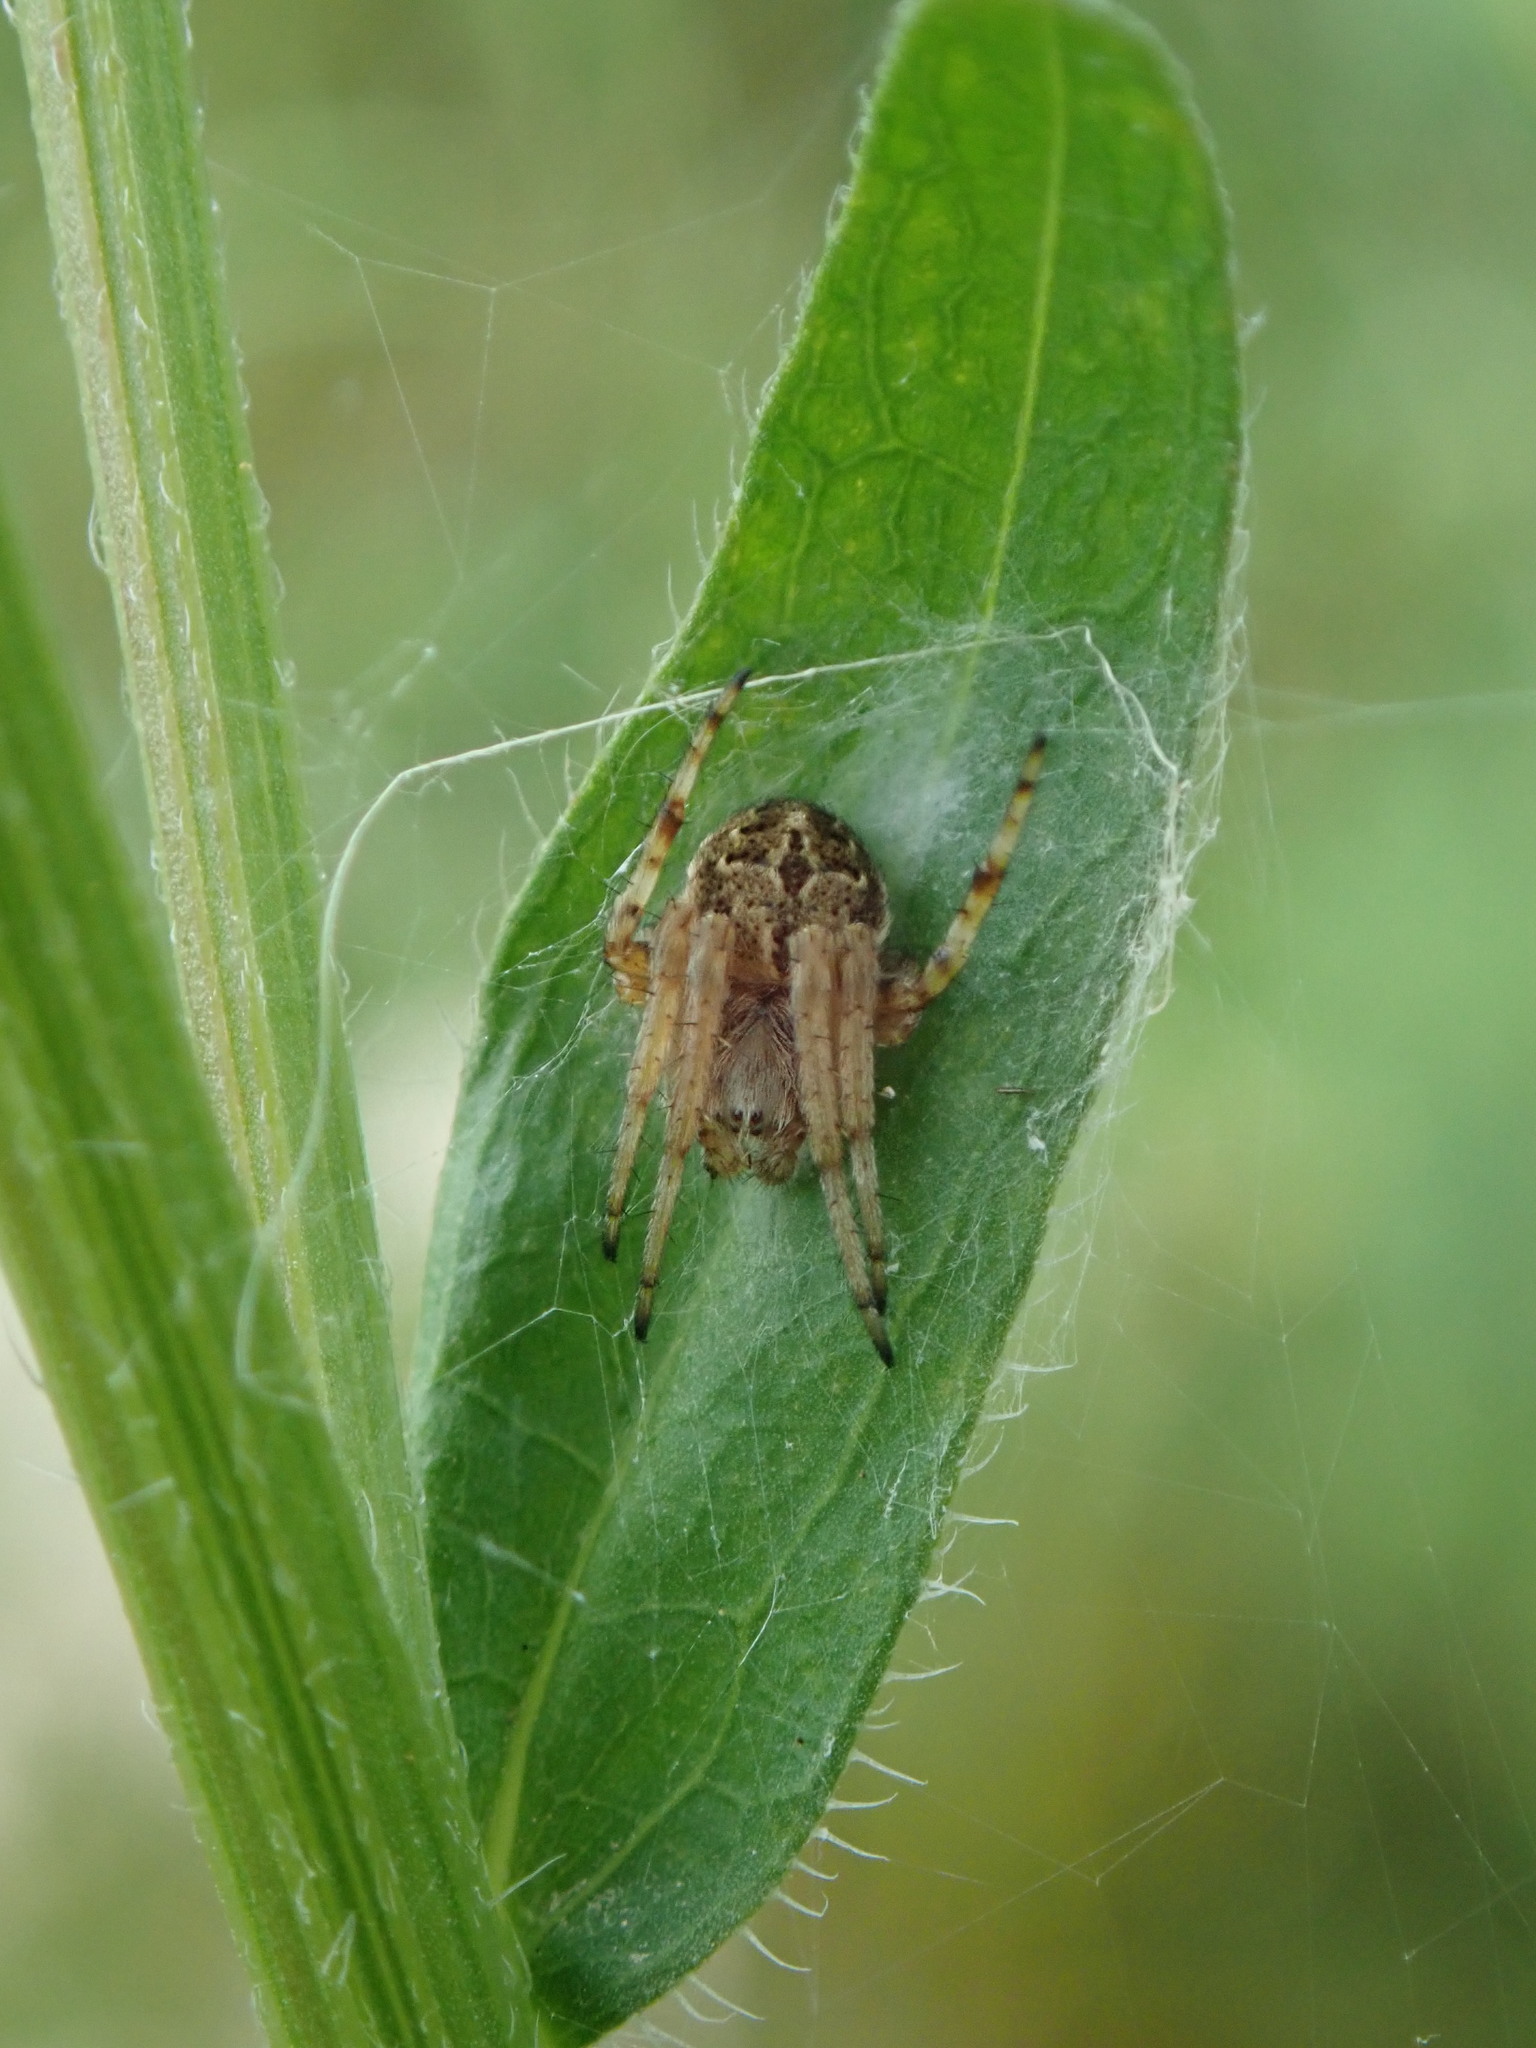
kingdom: Animalia
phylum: Arthropoda
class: Arachnida
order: Araneae
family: Araneidae
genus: Agalenatea
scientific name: Agalenatea redii
